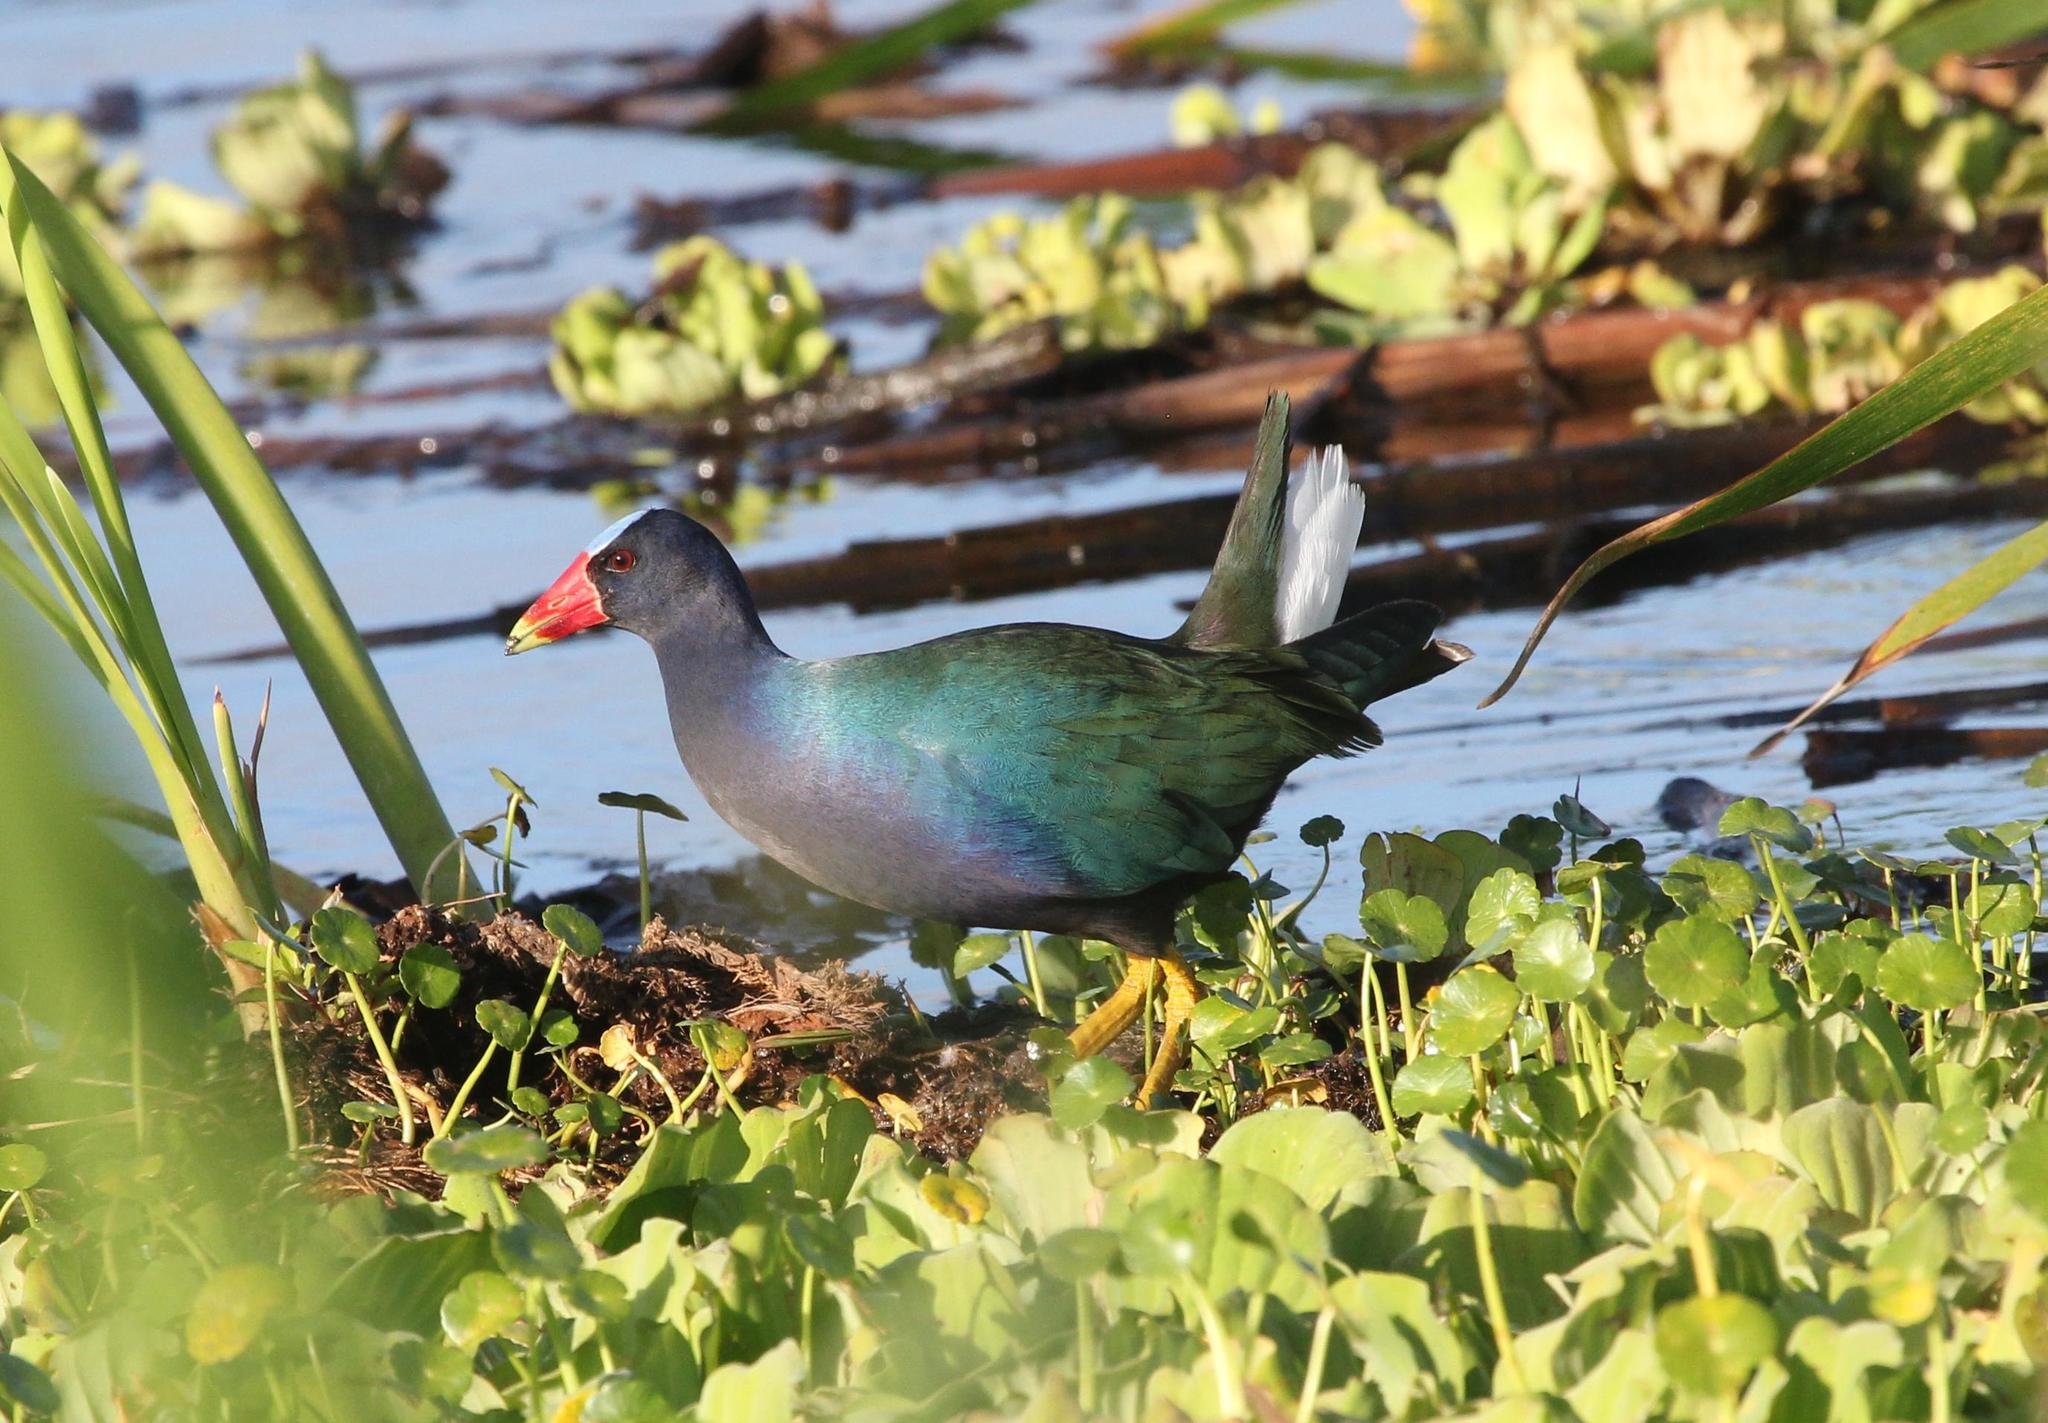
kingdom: Animalia
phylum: Chordata
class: Aves
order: Gruiformes
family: Rallidae
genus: Porphyrio
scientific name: Porphyrio martinica
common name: Purple gallinule
